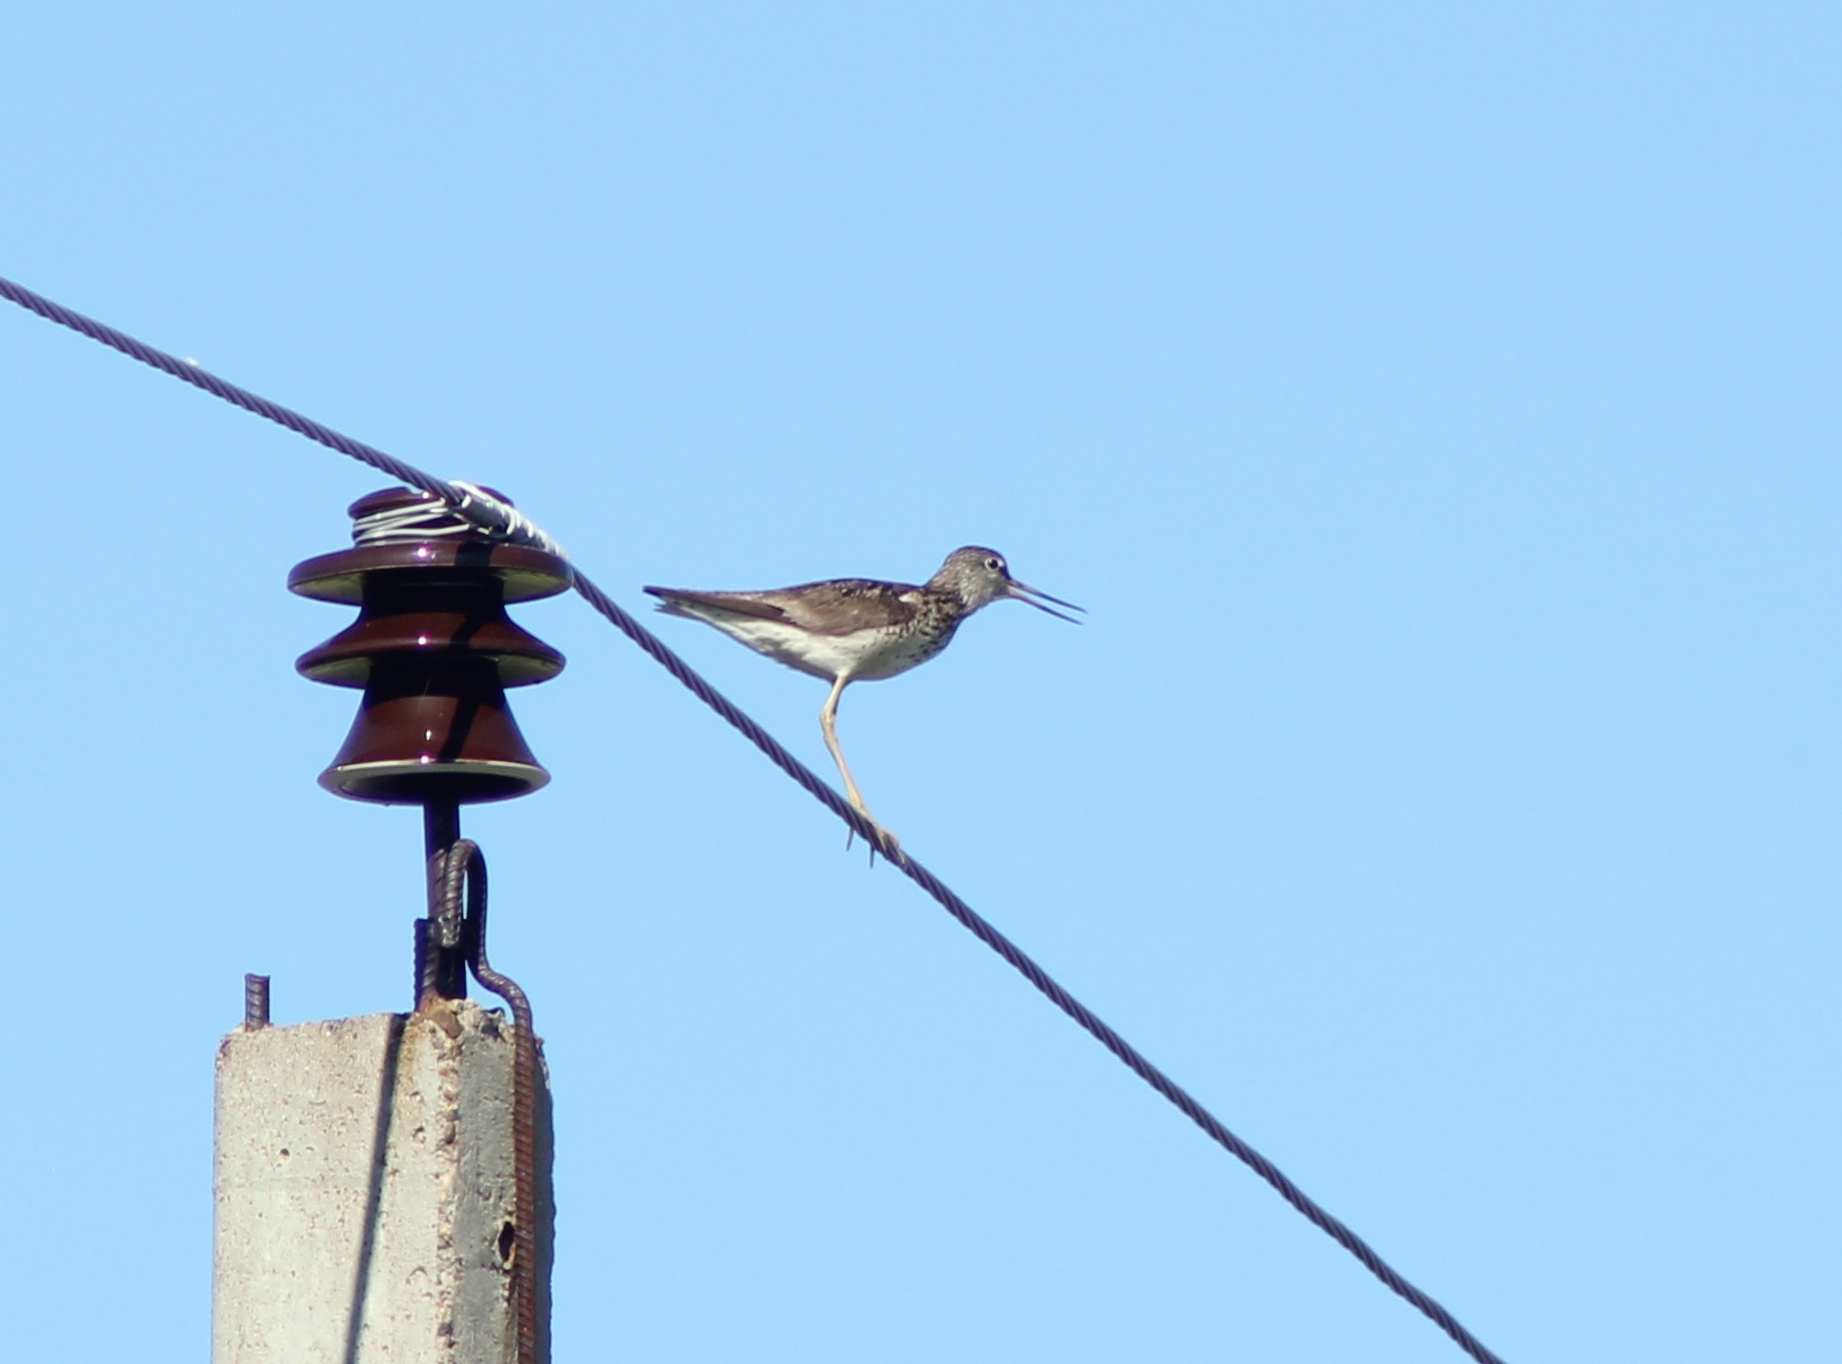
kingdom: Animalia
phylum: Chordata
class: Aves
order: Charadriiformes
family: Scolopacidae
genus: Tringa
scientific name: Tringa nebularia
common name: Common greenshank
